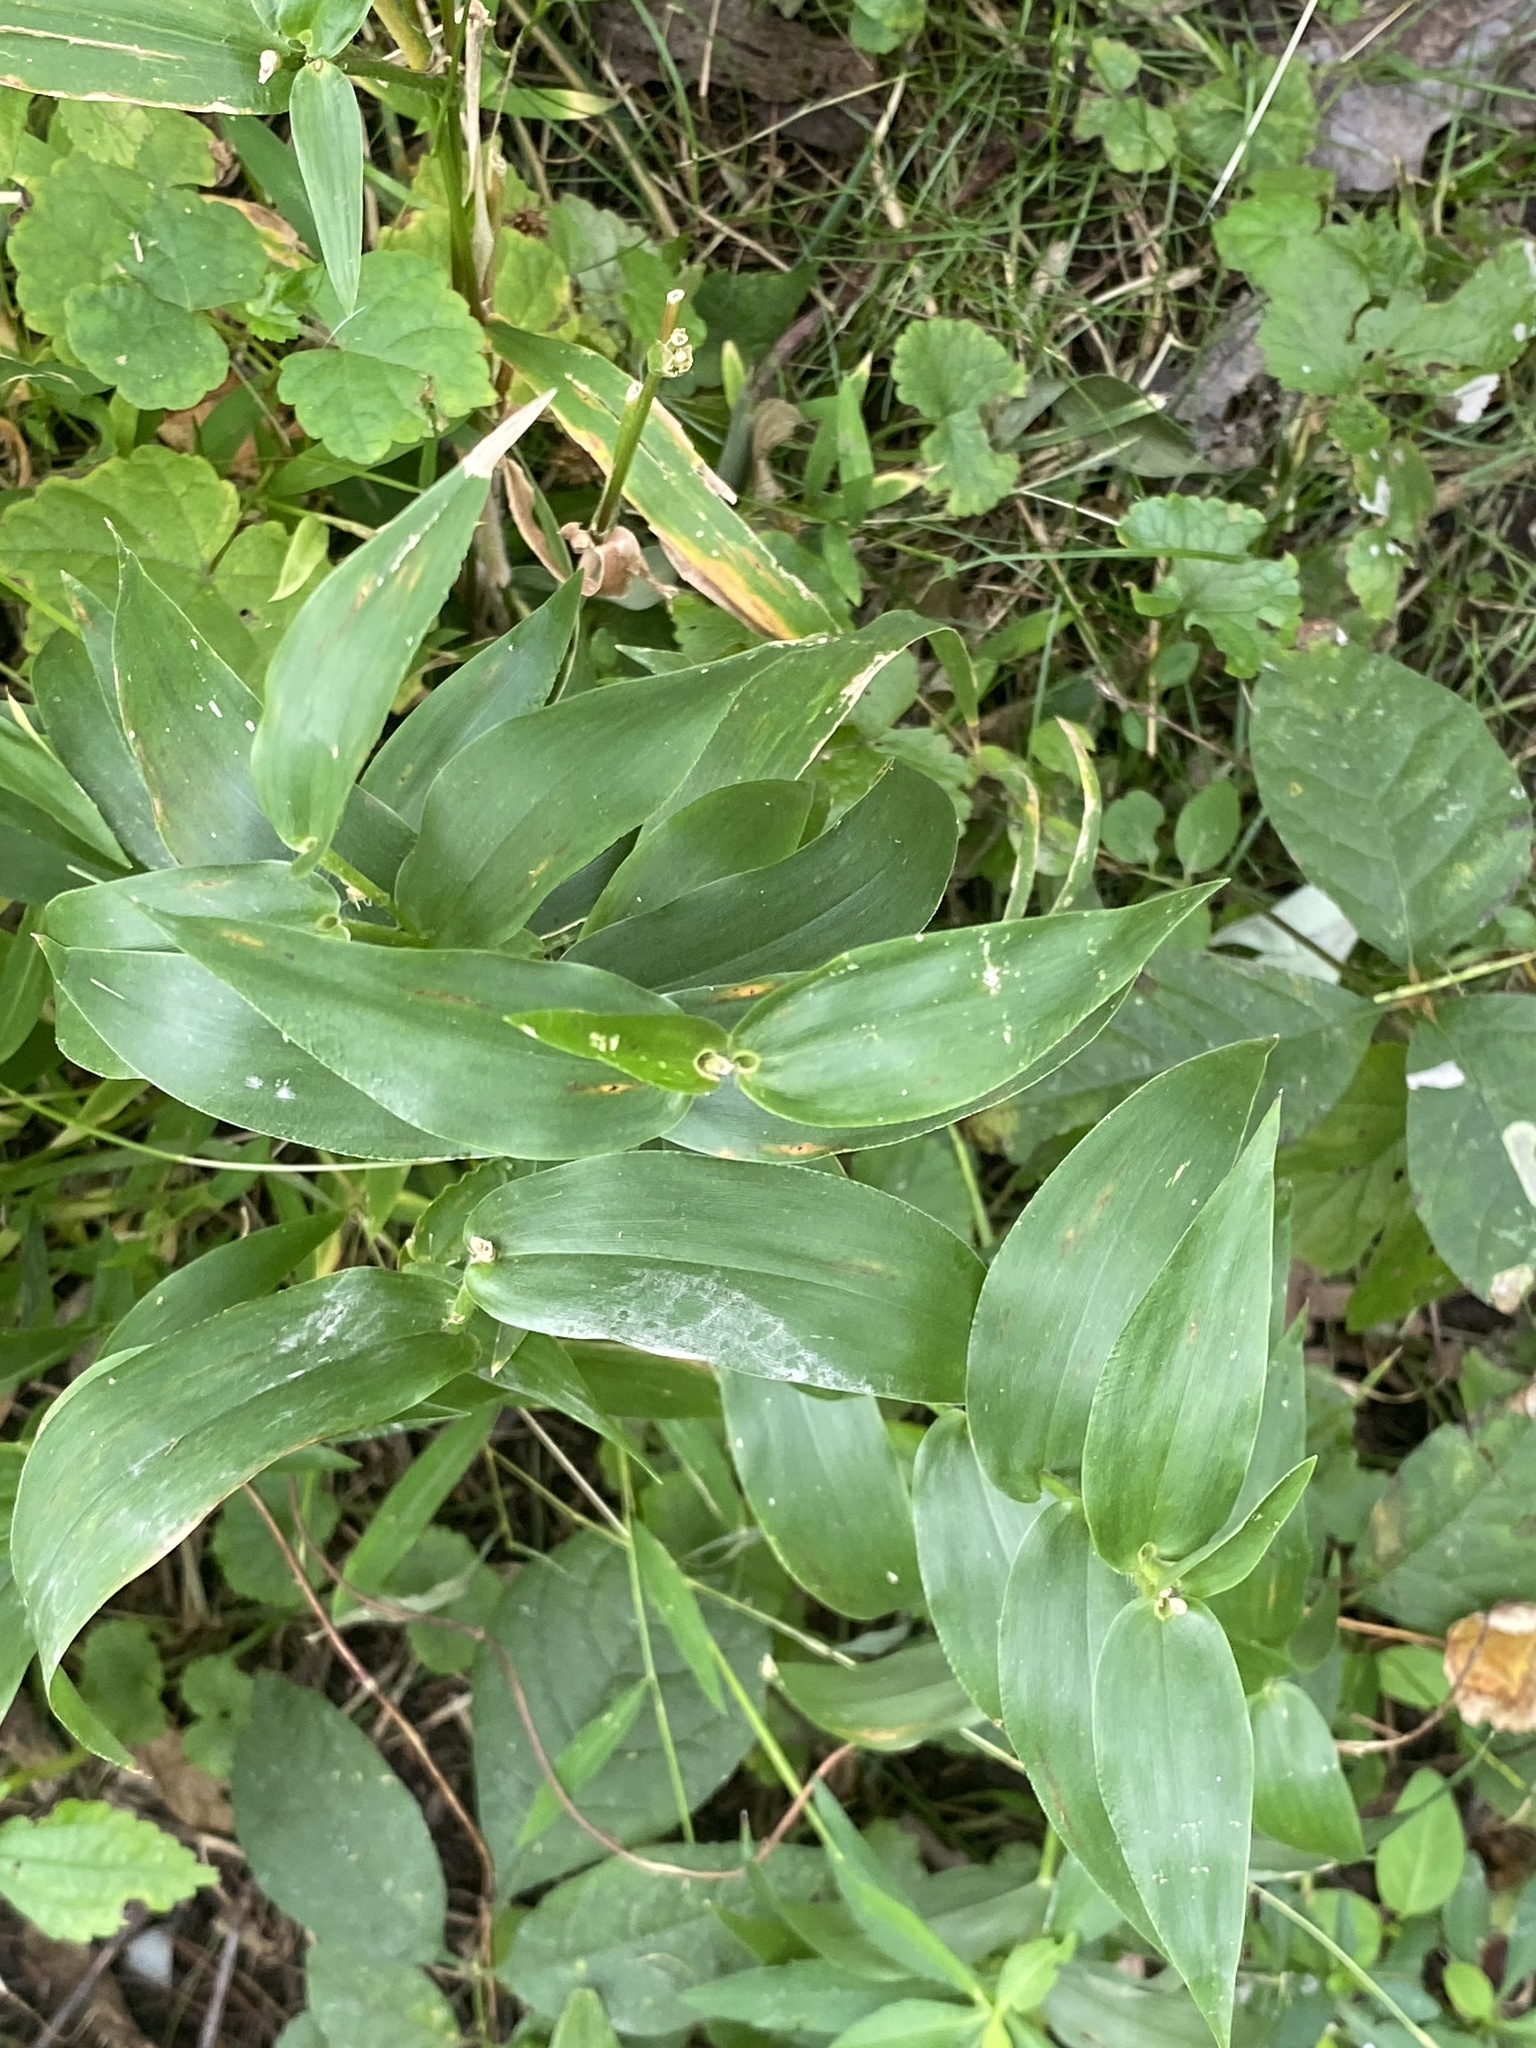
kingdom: Plantae
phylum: Tracheophyta
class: Liliopsida
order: Poales
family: Poaceae
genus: Dichanthelium
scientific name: Dichanthelium clandestinum
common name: Deer-tongue grass
